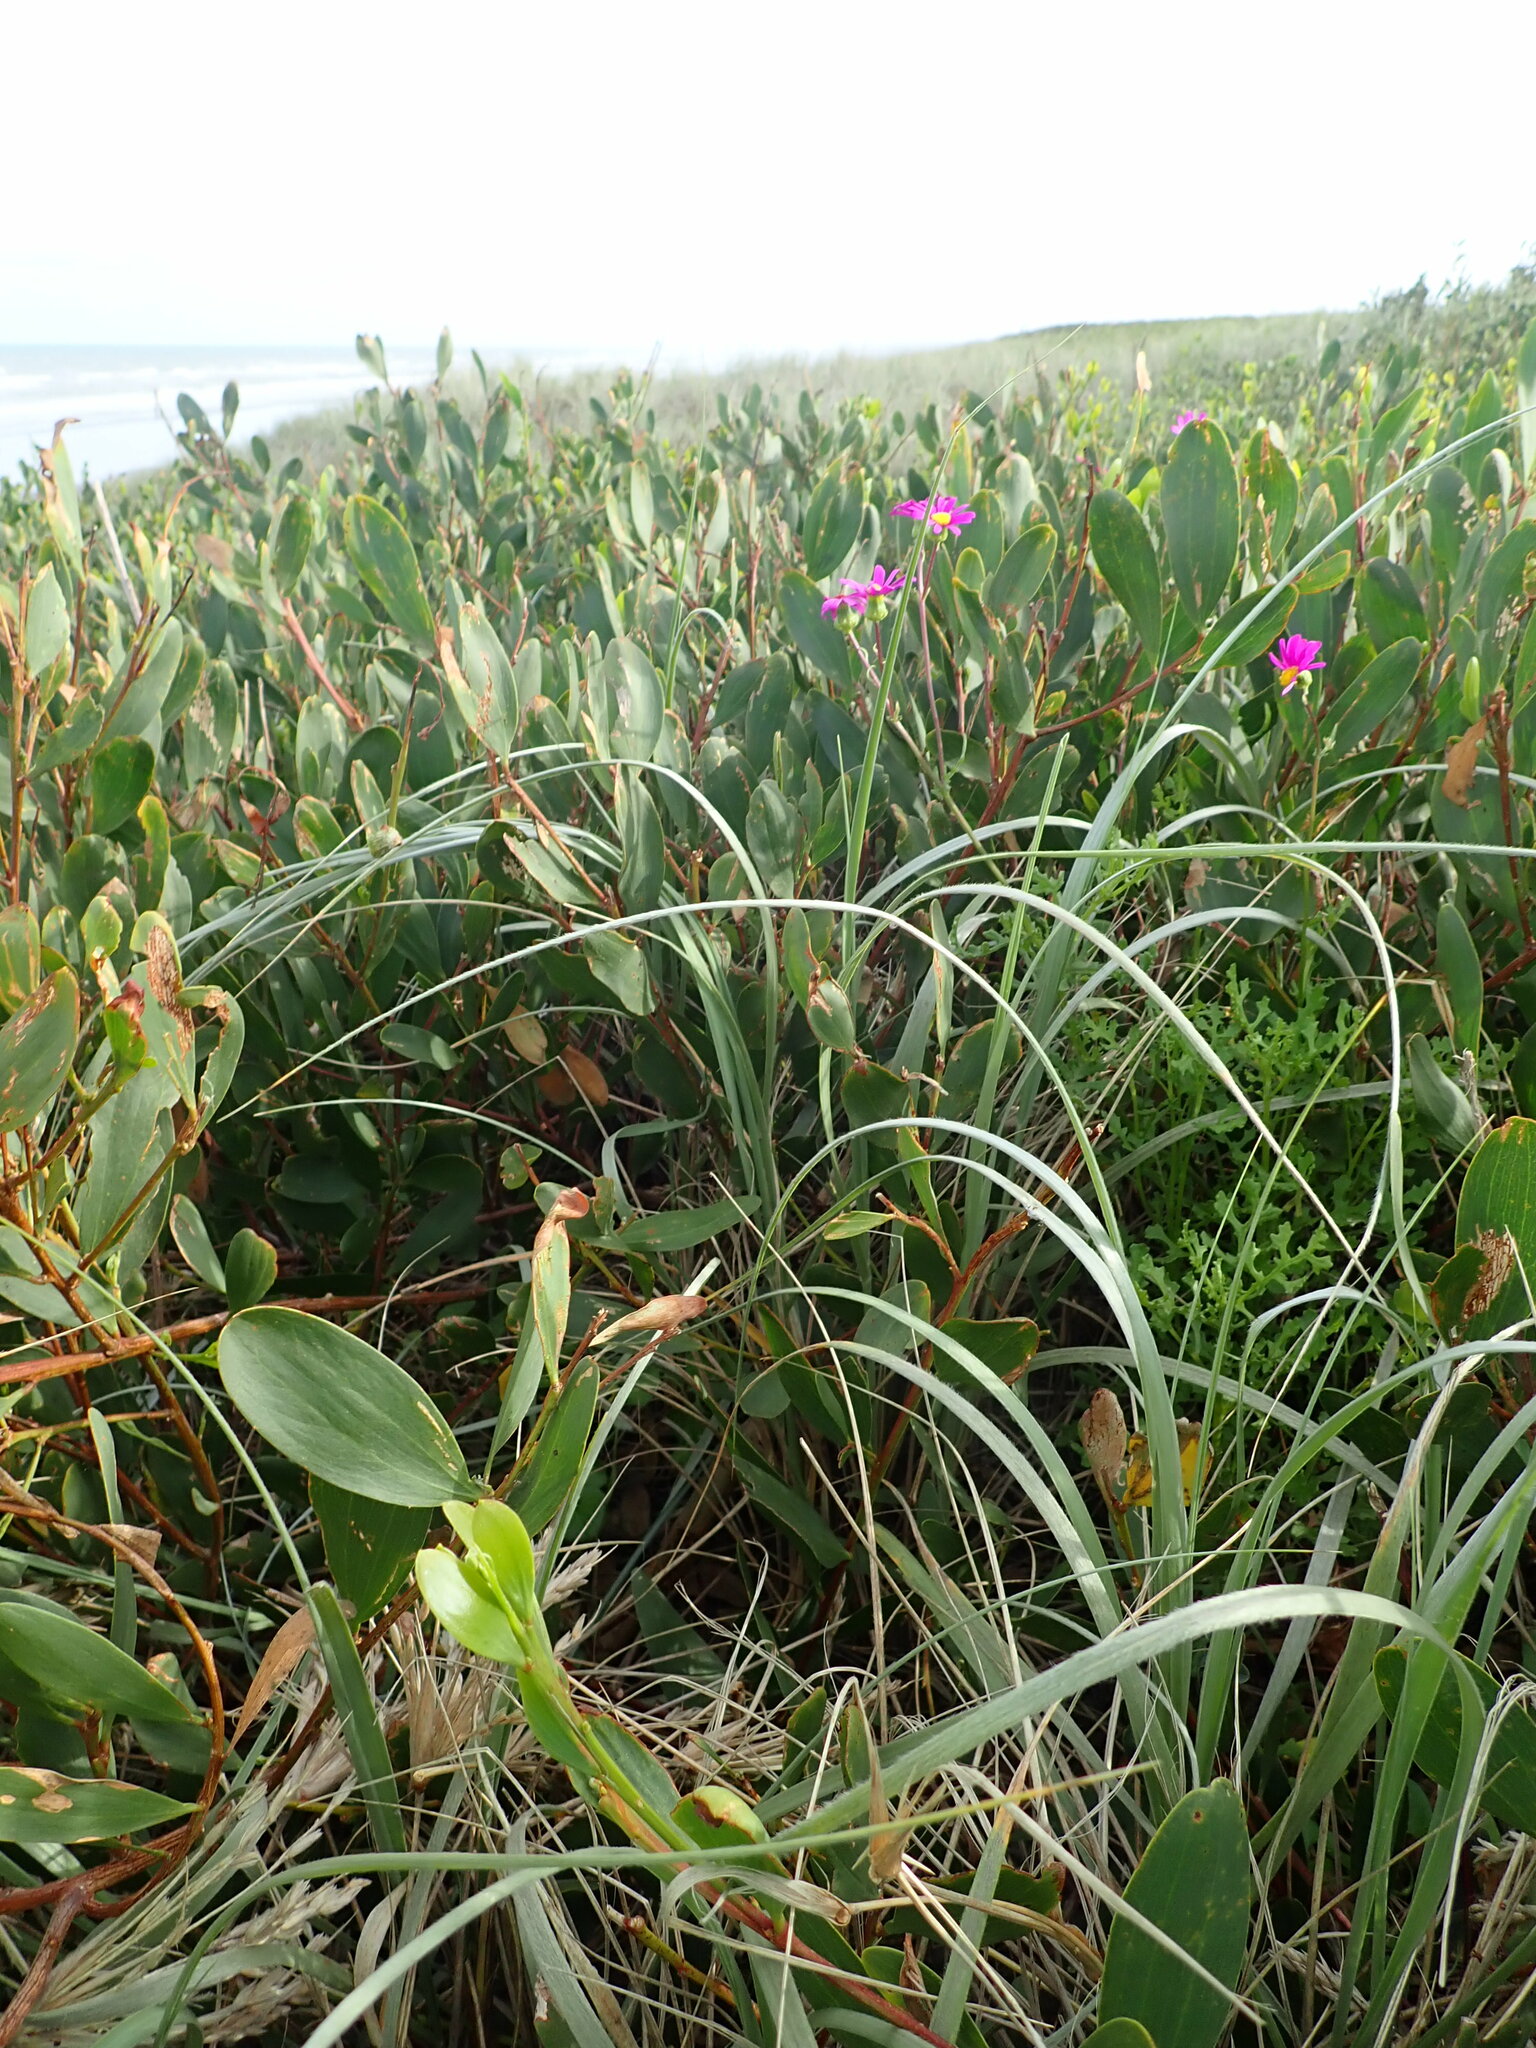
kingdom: Plantae
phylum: Tracheophyta
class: Magnoliopsida
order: Asterales
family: Asteraceae
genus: Senecio
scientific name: Senecio elegans
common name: Purple groundsel
